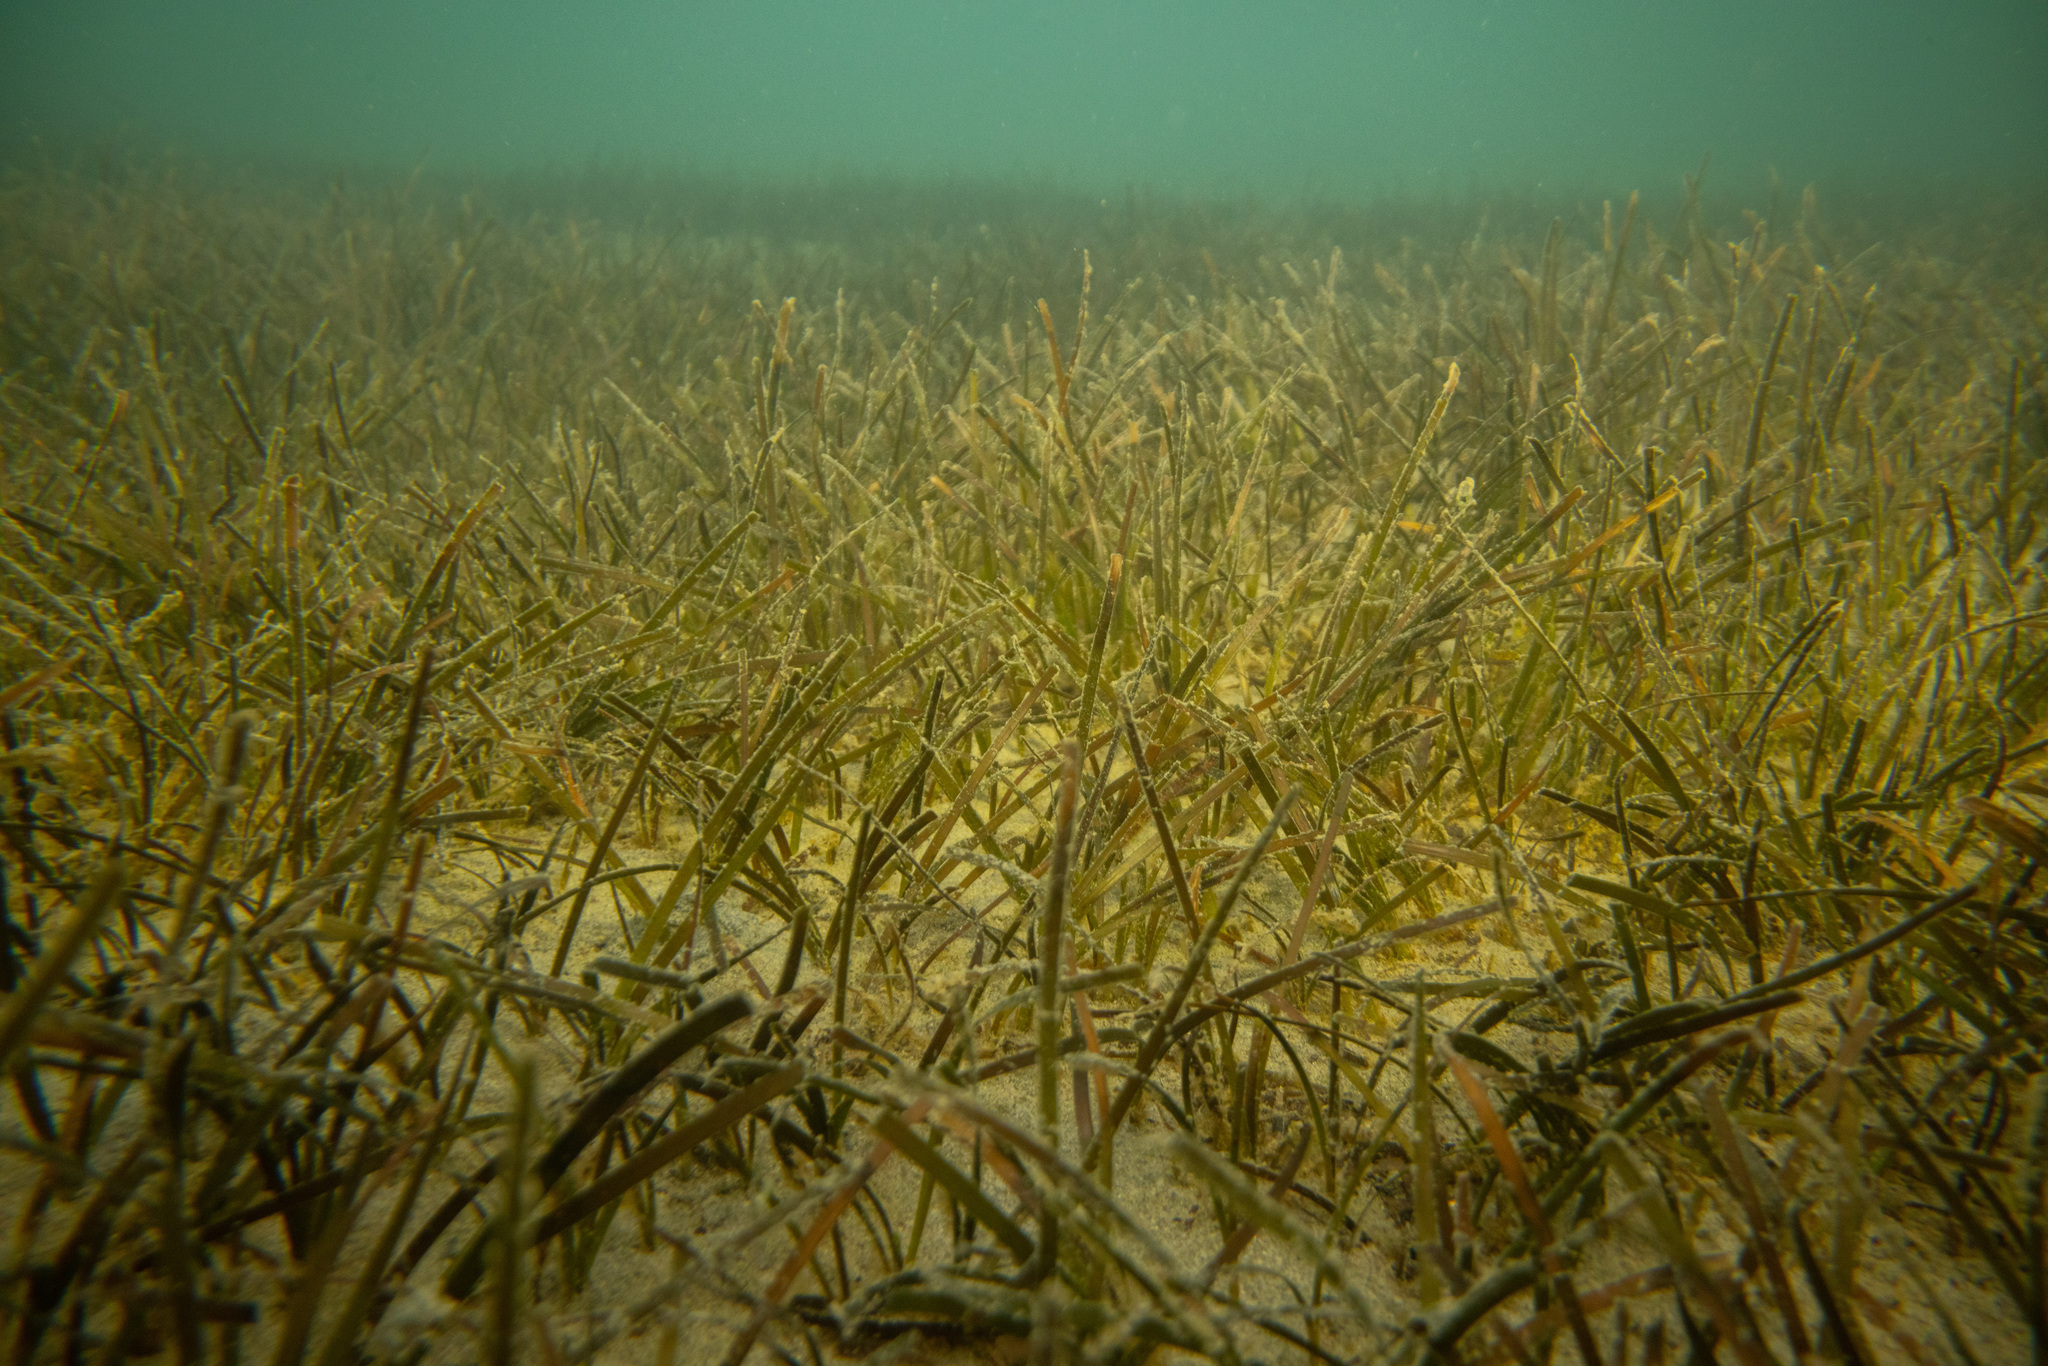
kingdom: Plantae
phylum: Tracheophyta
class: Liliopsida
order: Alismatales
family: Zosteraceae
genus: Zostera
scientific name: Zostera muelleri
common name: Species code: zc
